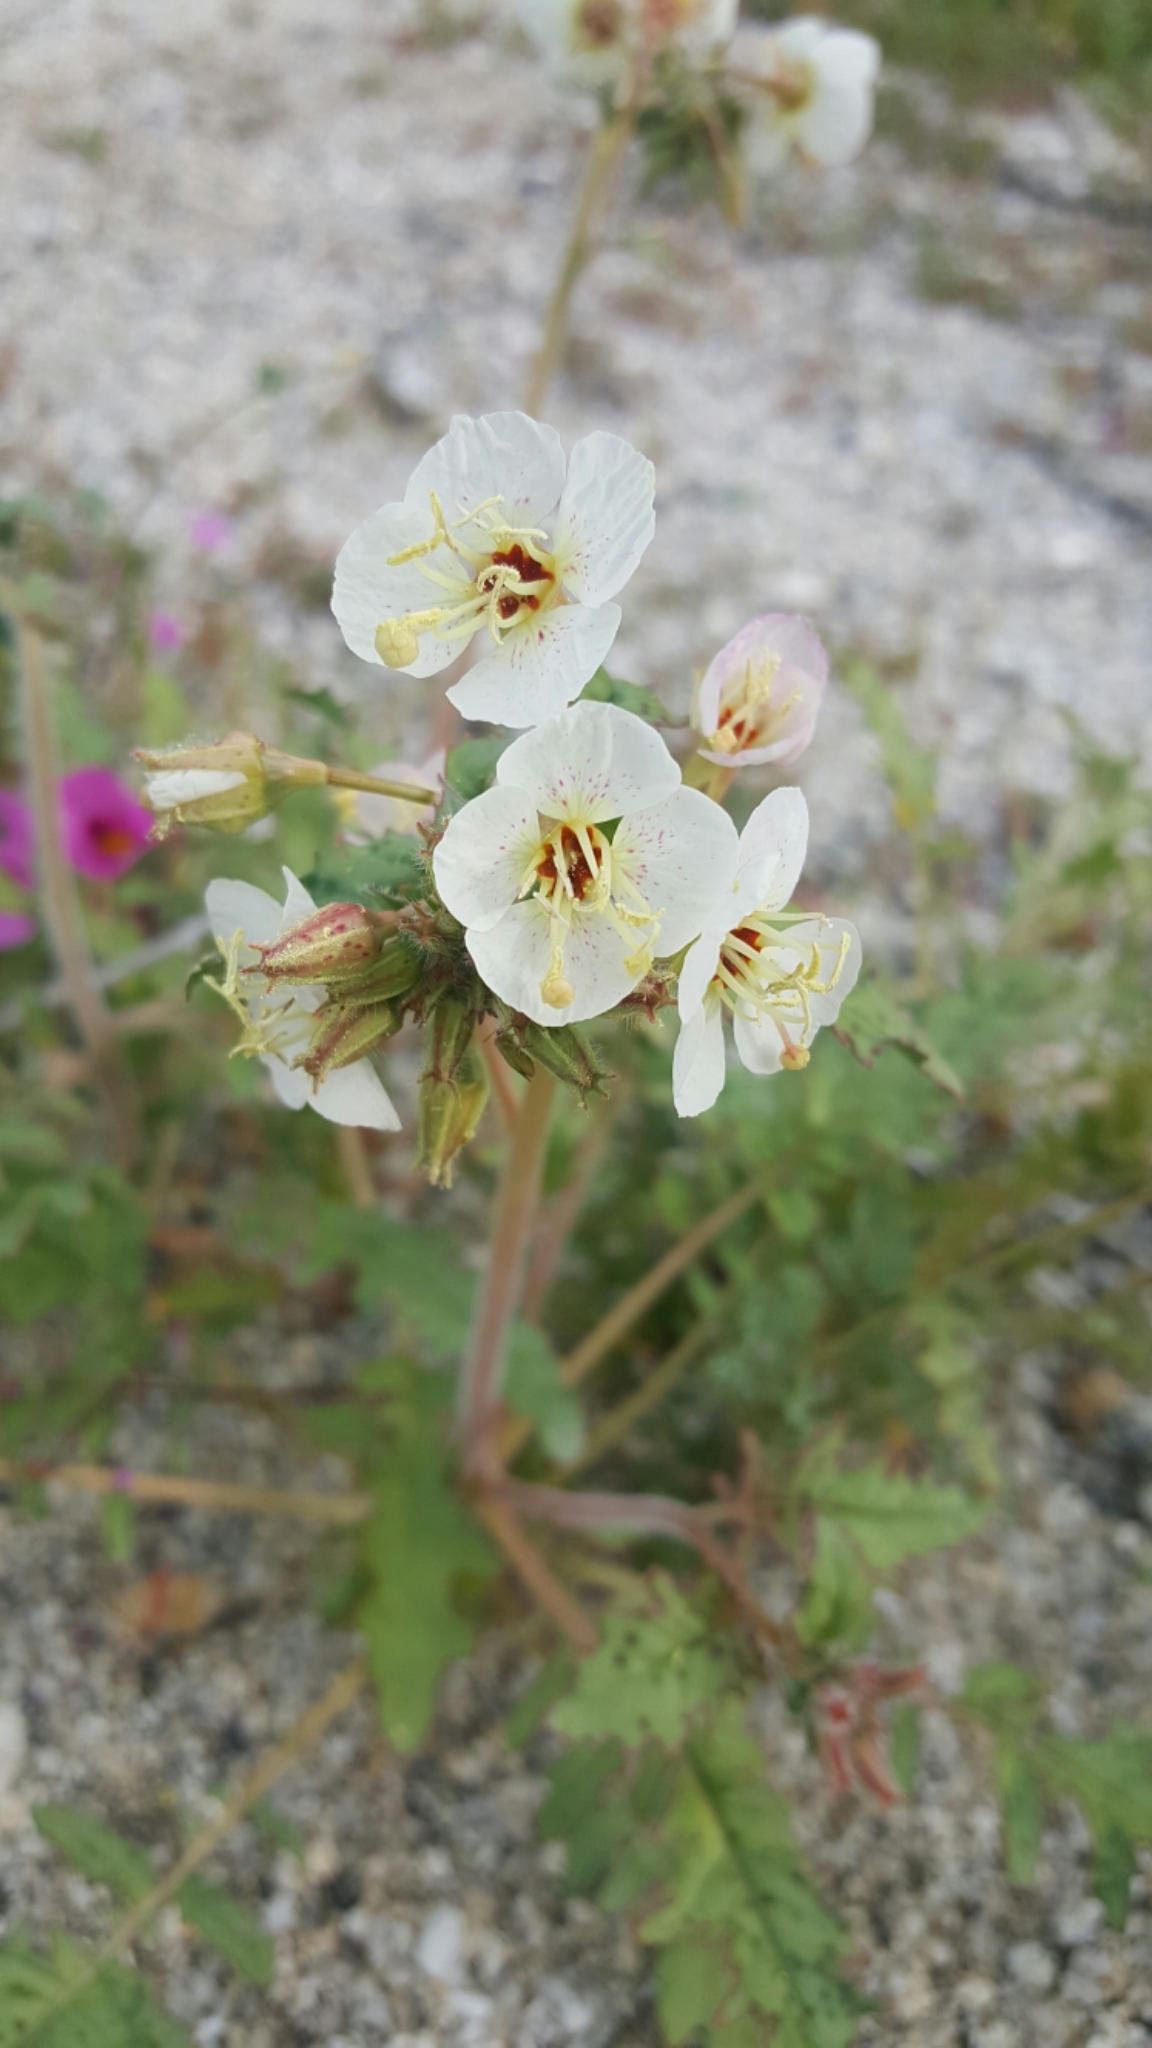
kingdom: Plantae
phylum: Tracheophyta
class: Magnoliopsida
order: Myrtales
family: Onagraceae
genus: Chylismia
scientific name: Chylismia claviformis
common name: Browneyes
